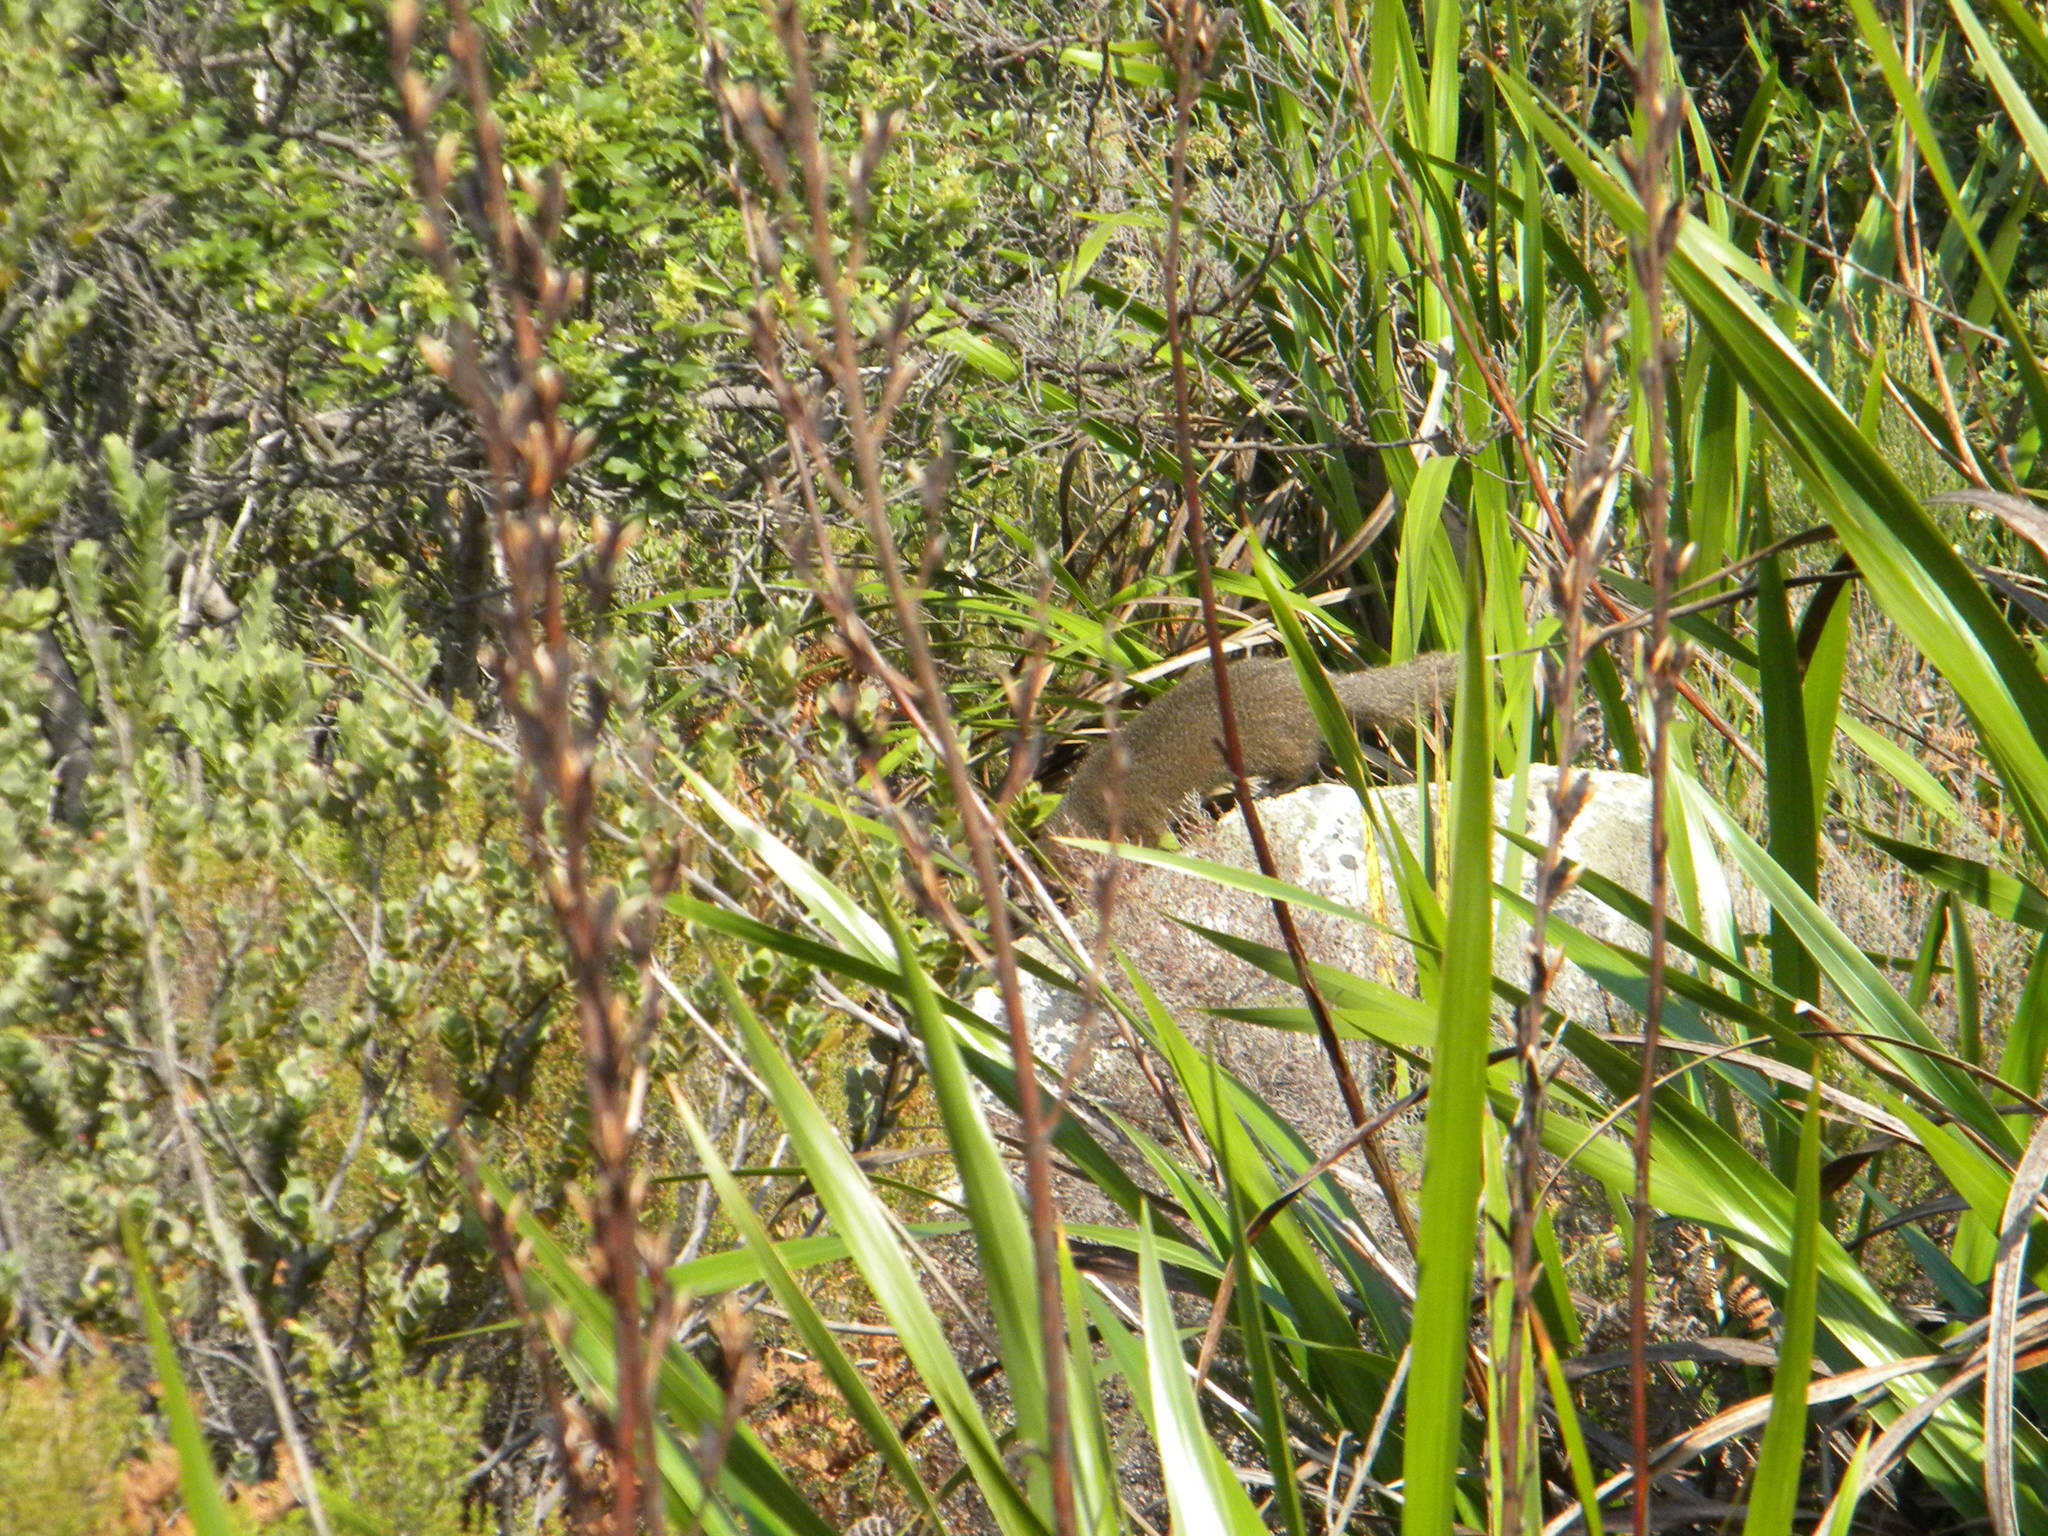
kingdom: Animalia
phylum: Chordata
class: Mammalia
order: Carnivora
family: Herpestidae
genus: Galerella
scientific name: Galerella pulverulenta
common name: Cape gray mongoose
